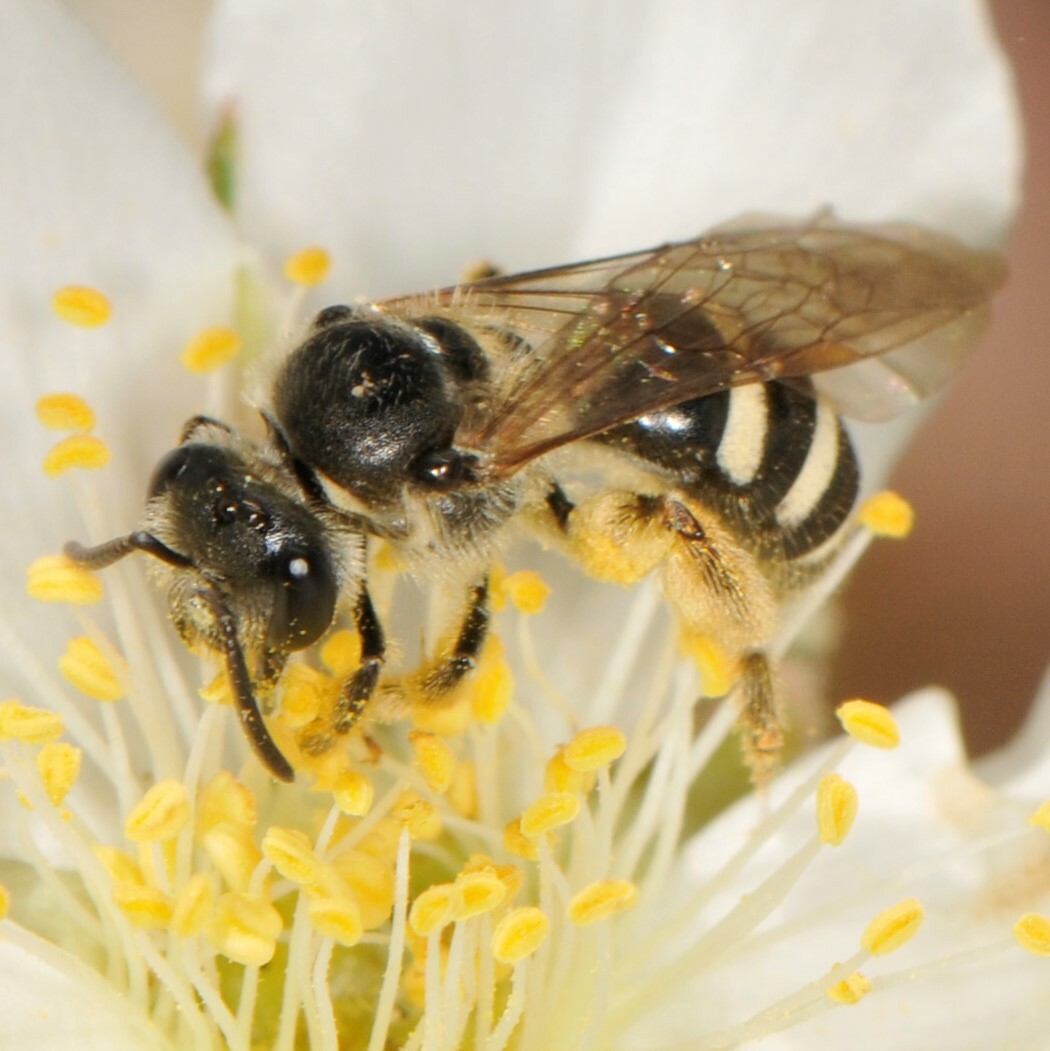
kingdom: Animalia
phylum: Arthropoda
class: Insecta
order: Hymenoptera
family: Halictidae
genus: Lasioglossum
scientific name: Lasioglossum
